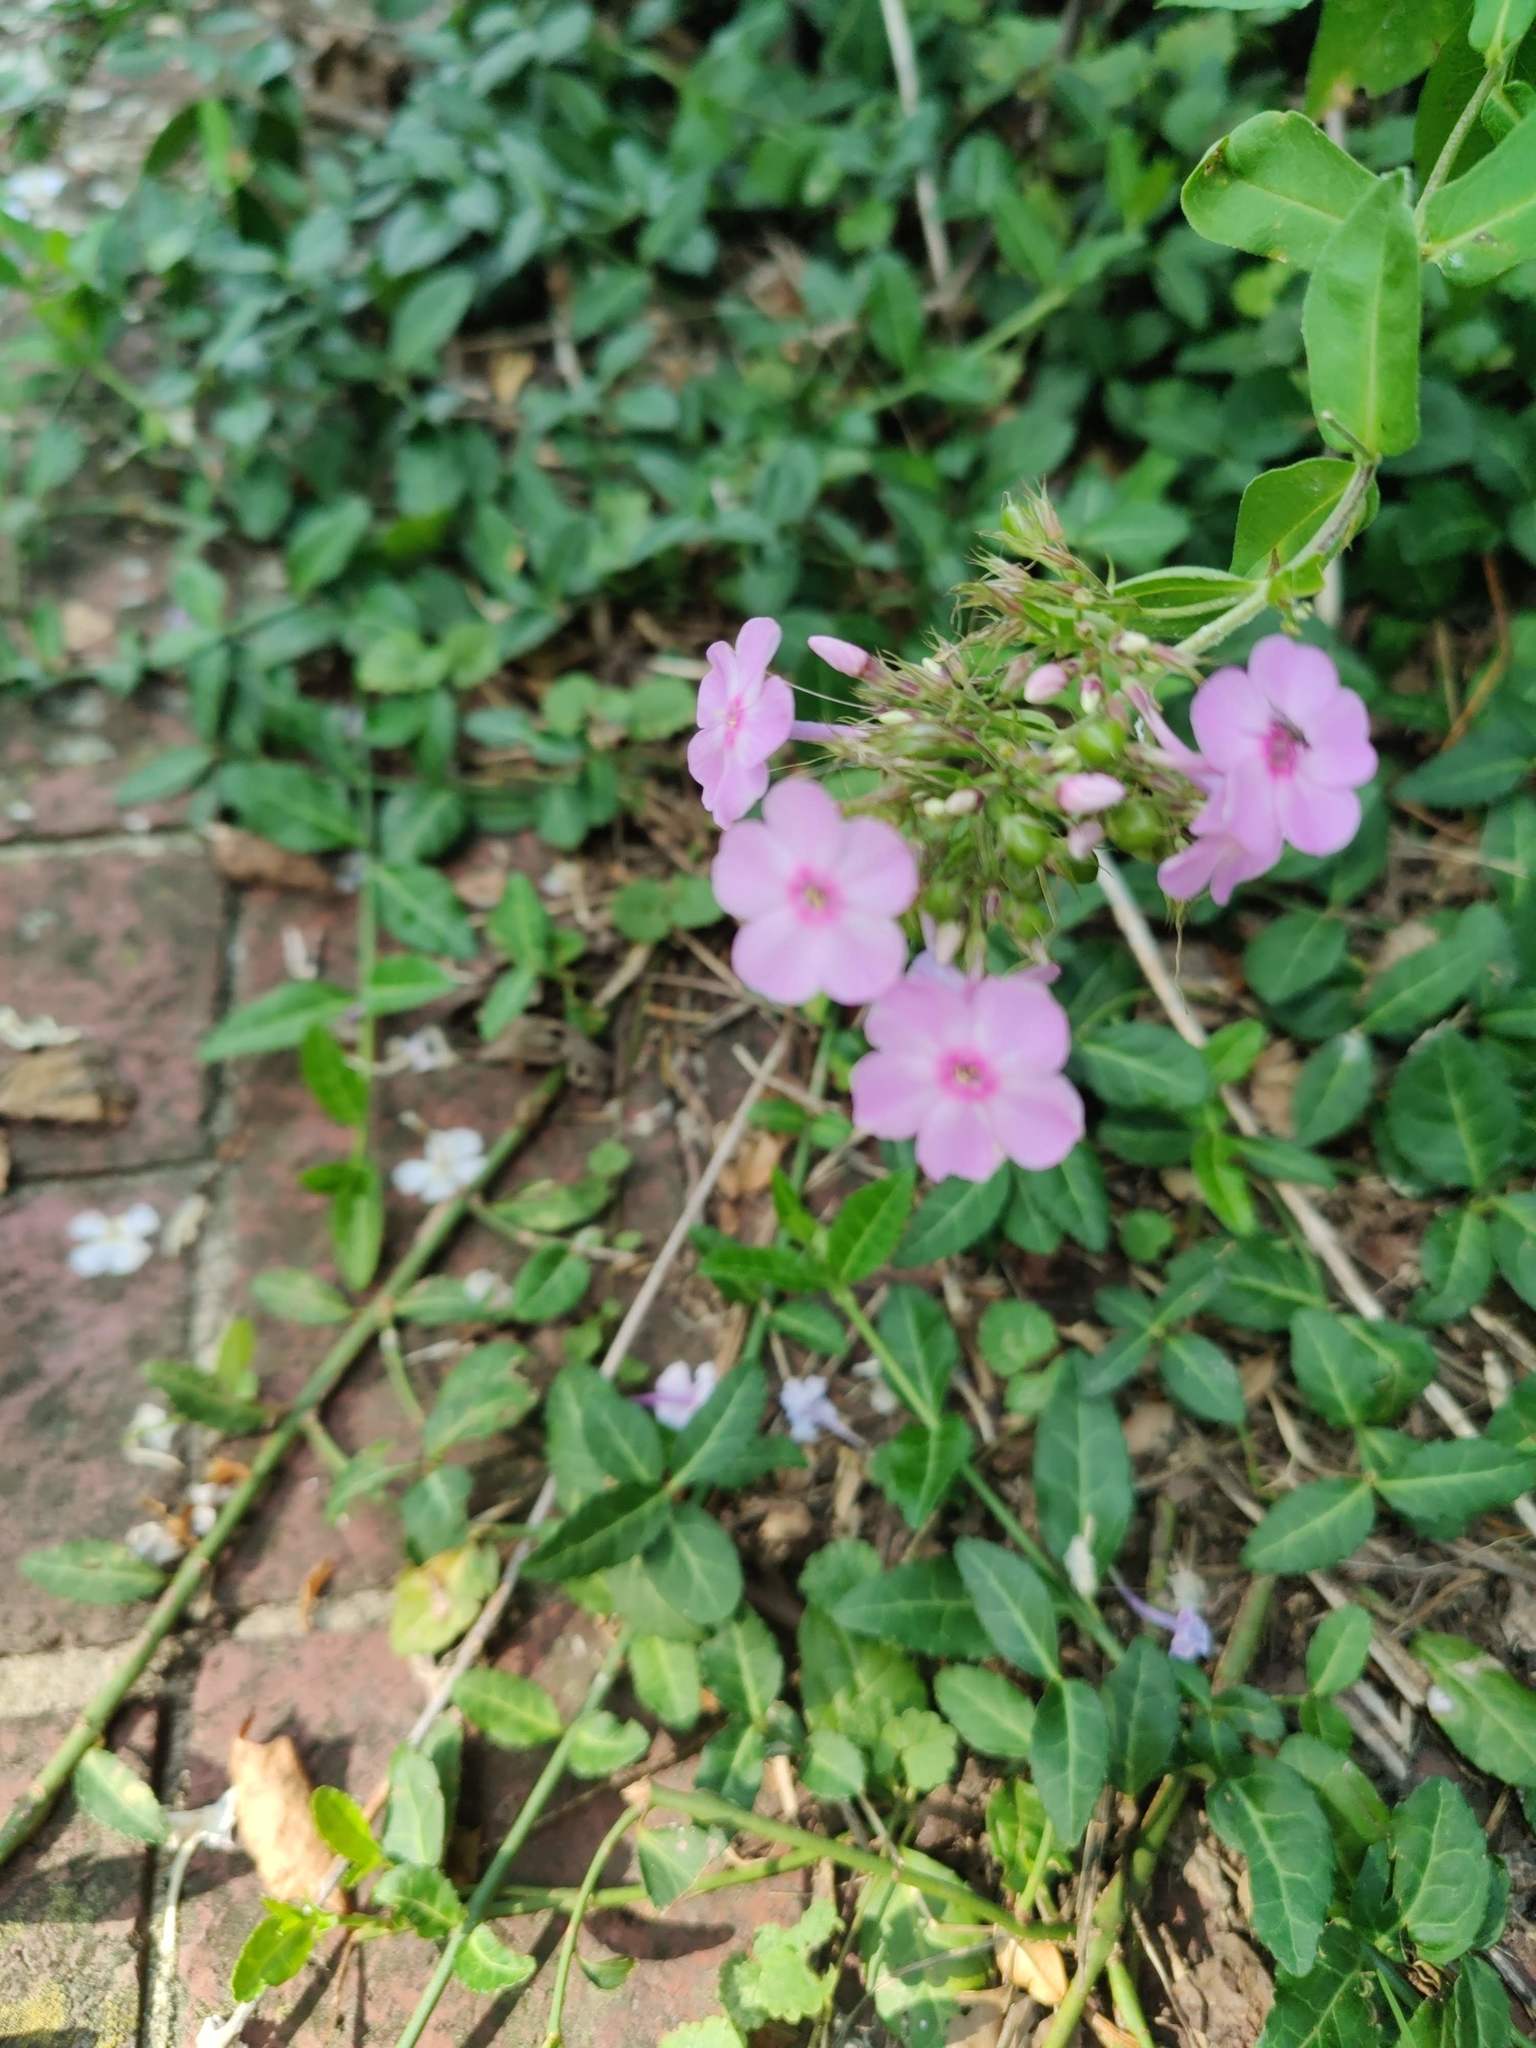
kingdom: Plantae
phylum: Tracheophyta
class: Magnoliopsida
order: Ericales
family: Polemoniaceae
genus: Phlox
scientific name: Phlox paniculata
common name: Fall phlox
